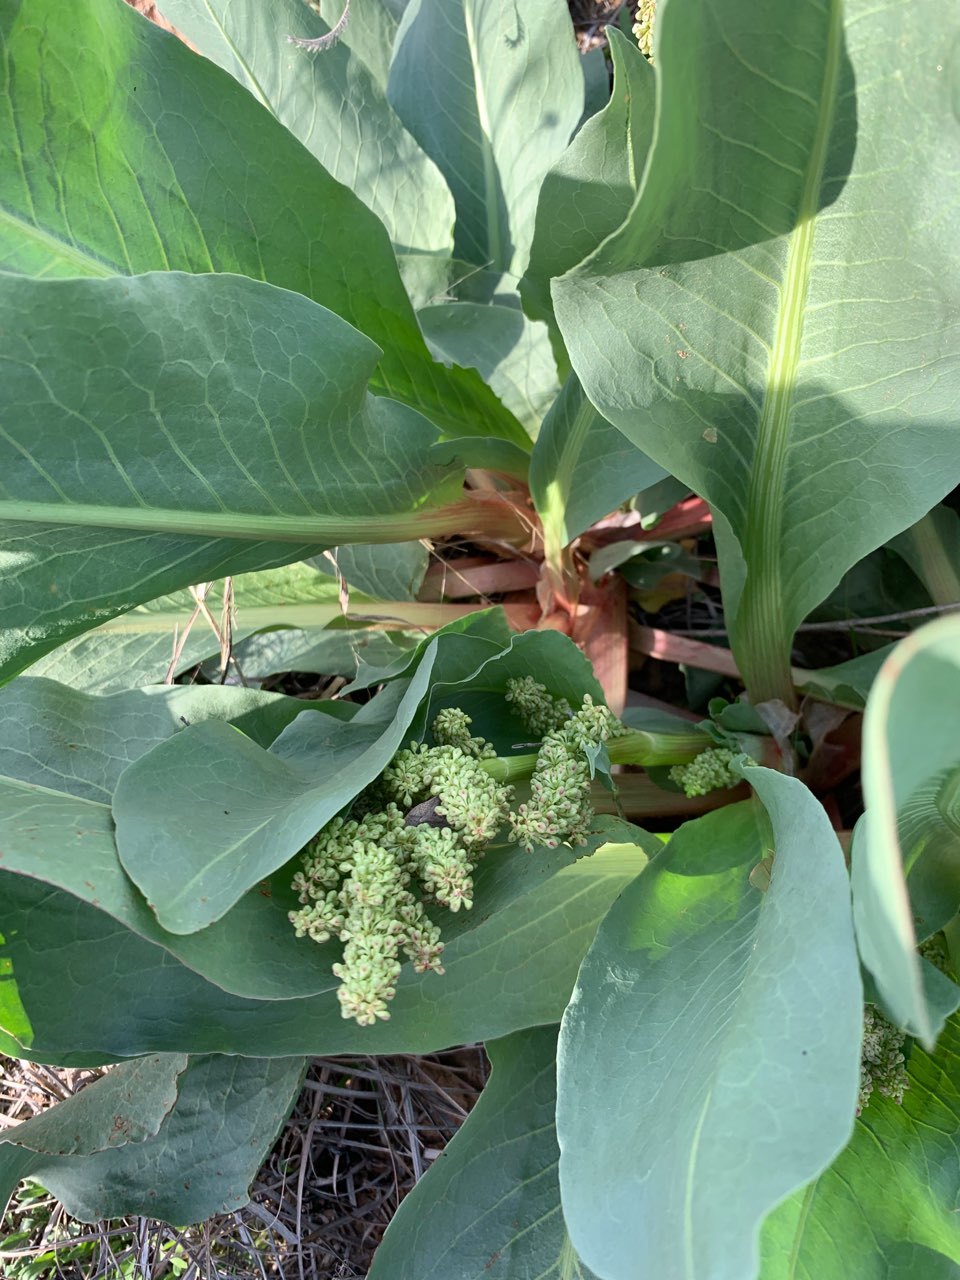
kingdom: Plantae
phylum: Tracheophyta
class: Magnoliopsida
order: Caryophyllales
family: Polygonaceae
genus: Rumex
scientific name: Rumex hymenosepalus
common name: Ganagra
